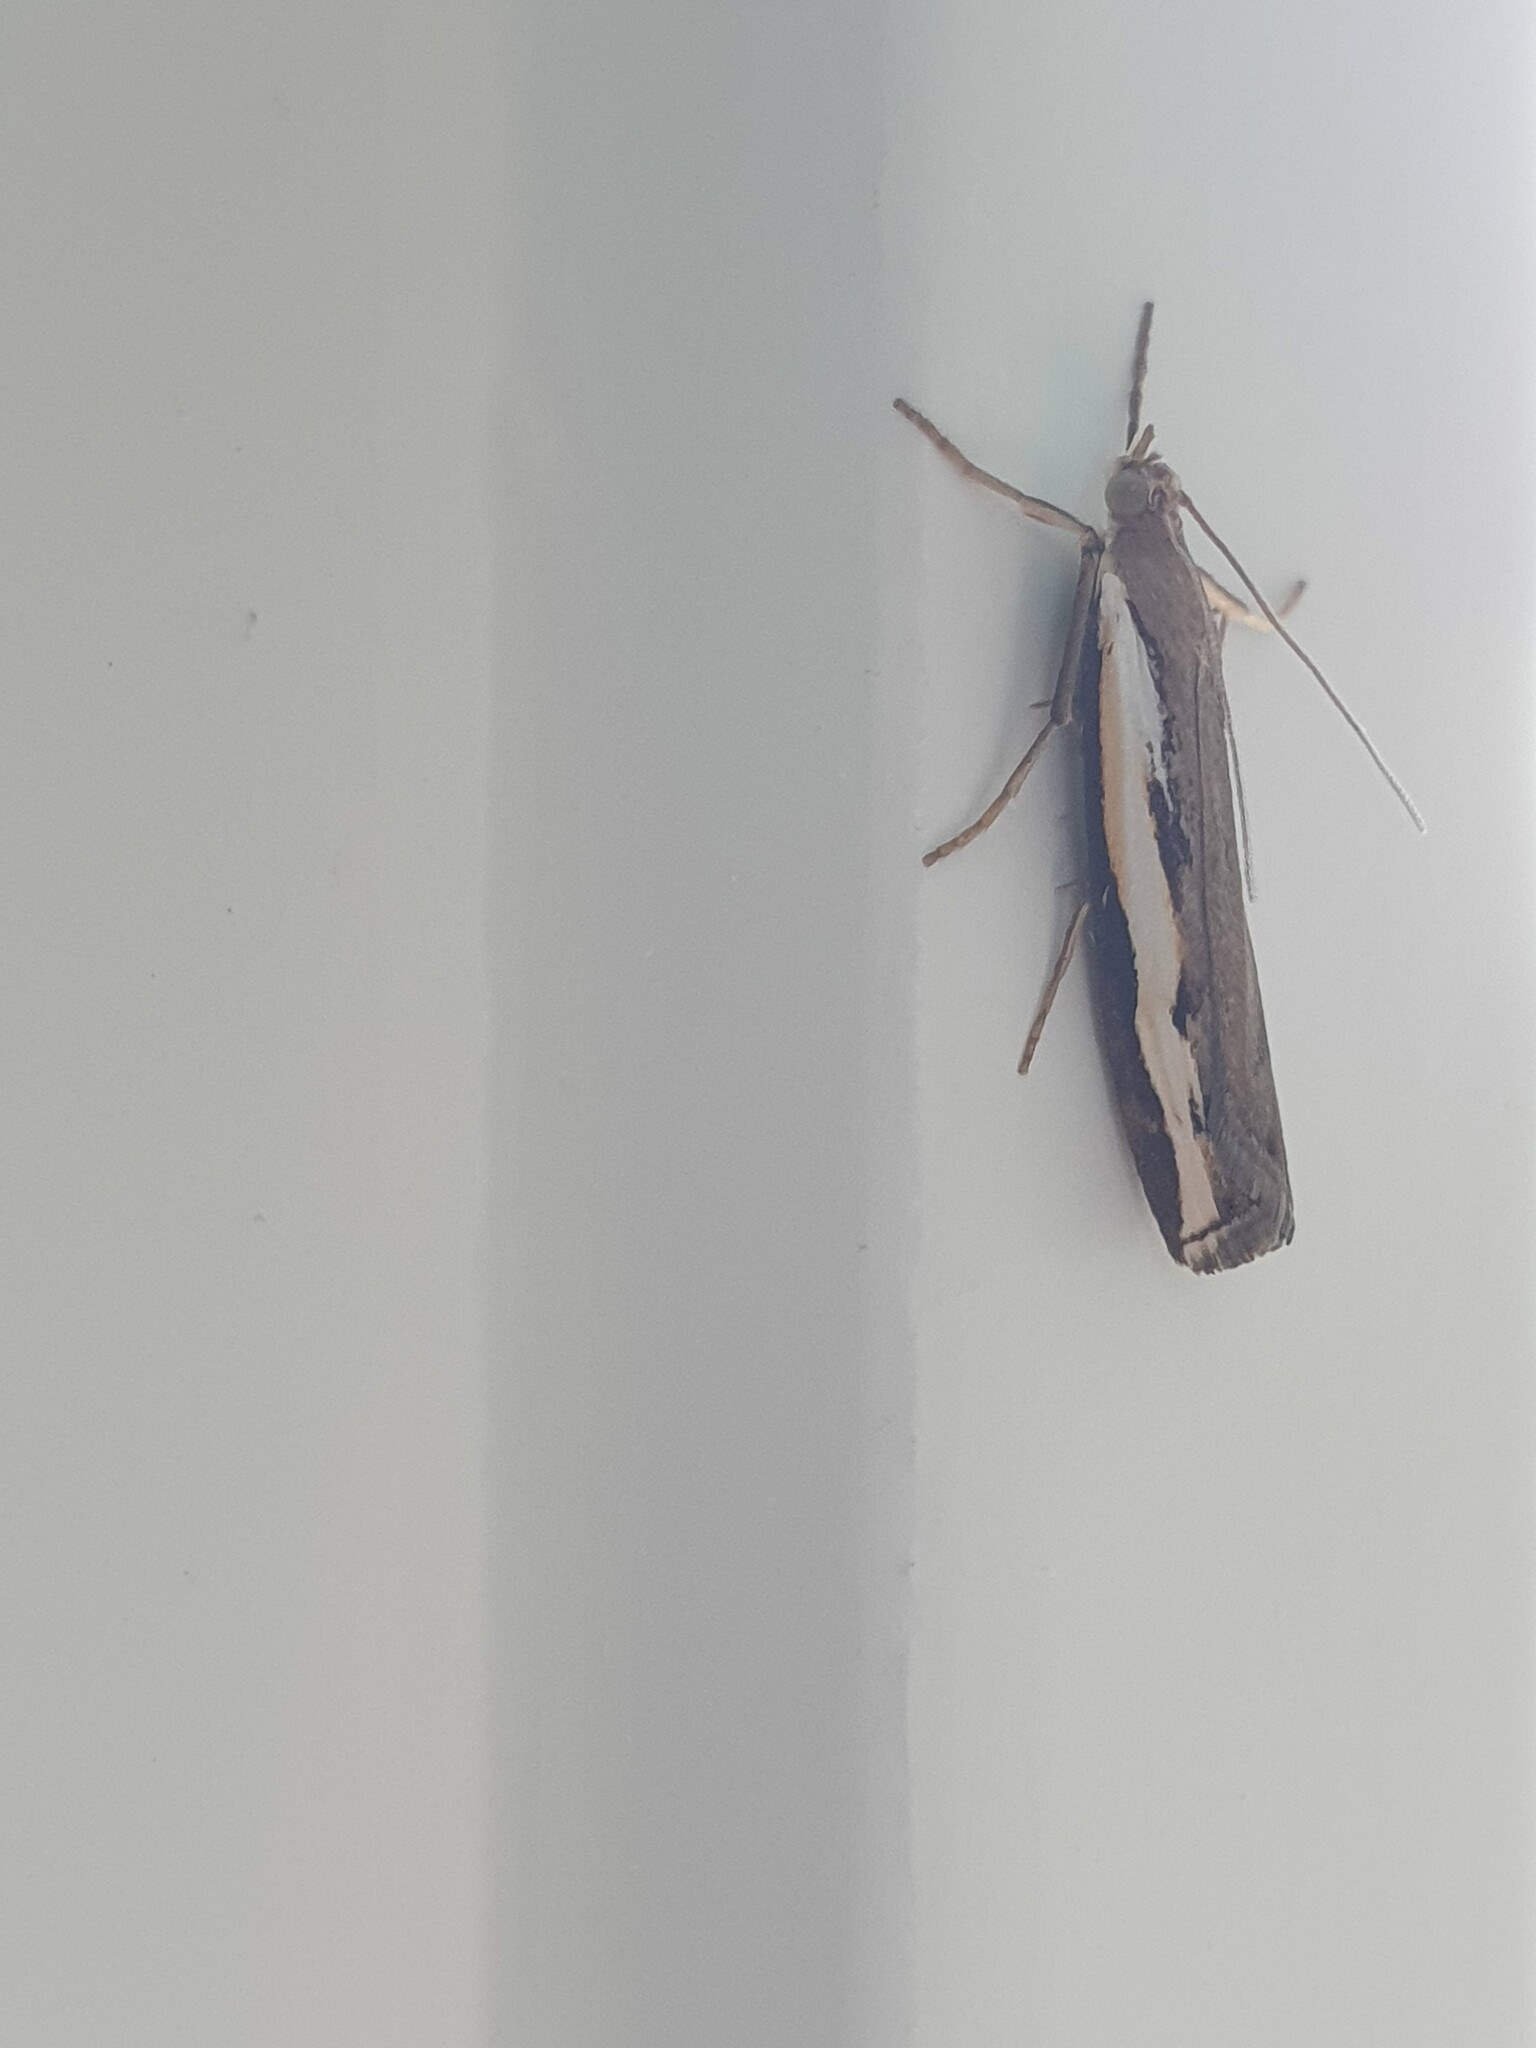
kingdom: Animalia
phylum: Arthropoda
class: Insecta
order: Lepidoptera
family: Crambidae
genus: Orocrambus
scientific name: Orocrambus flexuosellus
